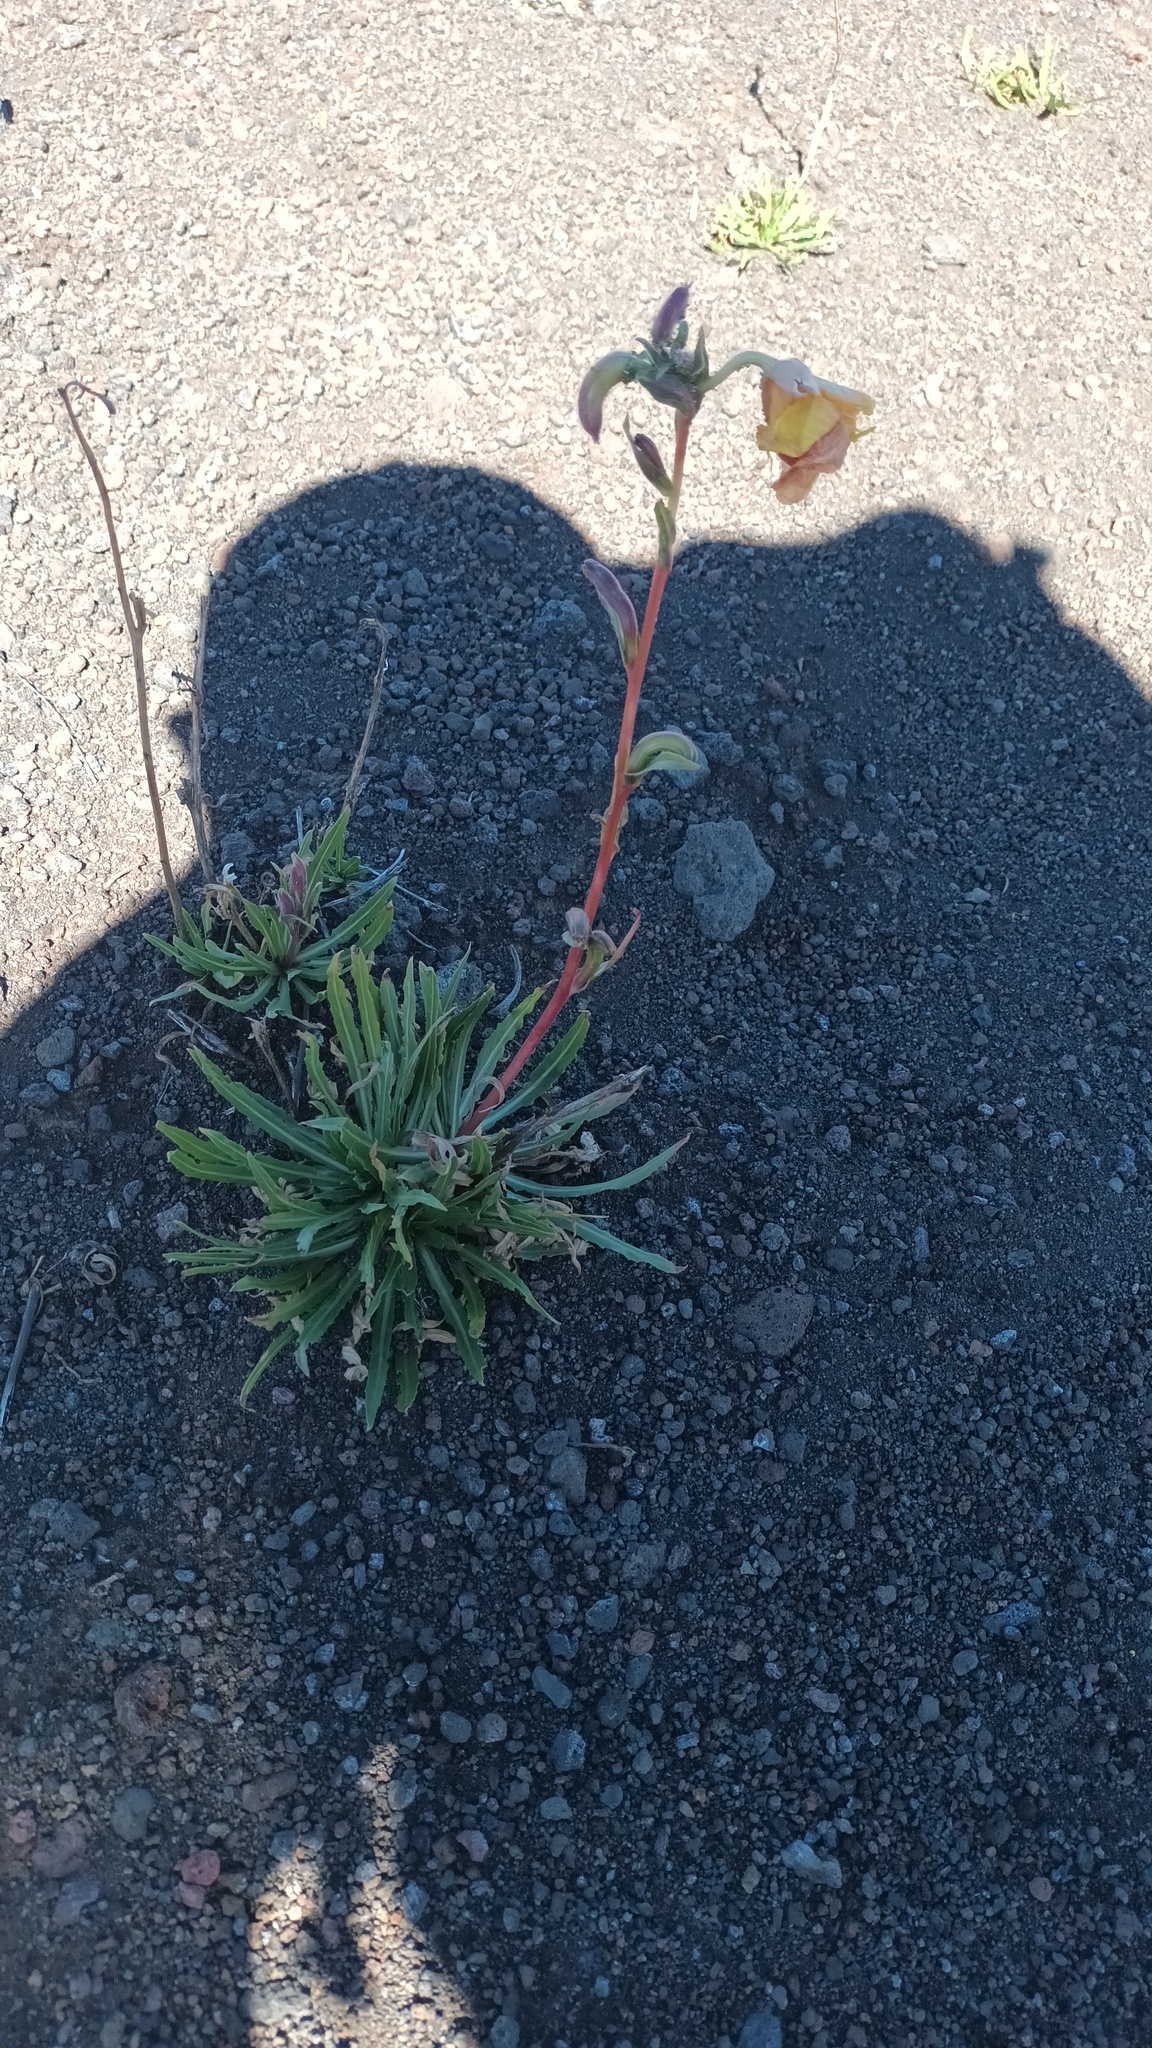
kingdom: Plantae
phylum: Tracheophyta
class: Magnoliopsida
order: Myrtales
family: Onagraceae
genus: Oenothera
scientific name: Oenothera stricta
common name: Fragrant evening-primrose
